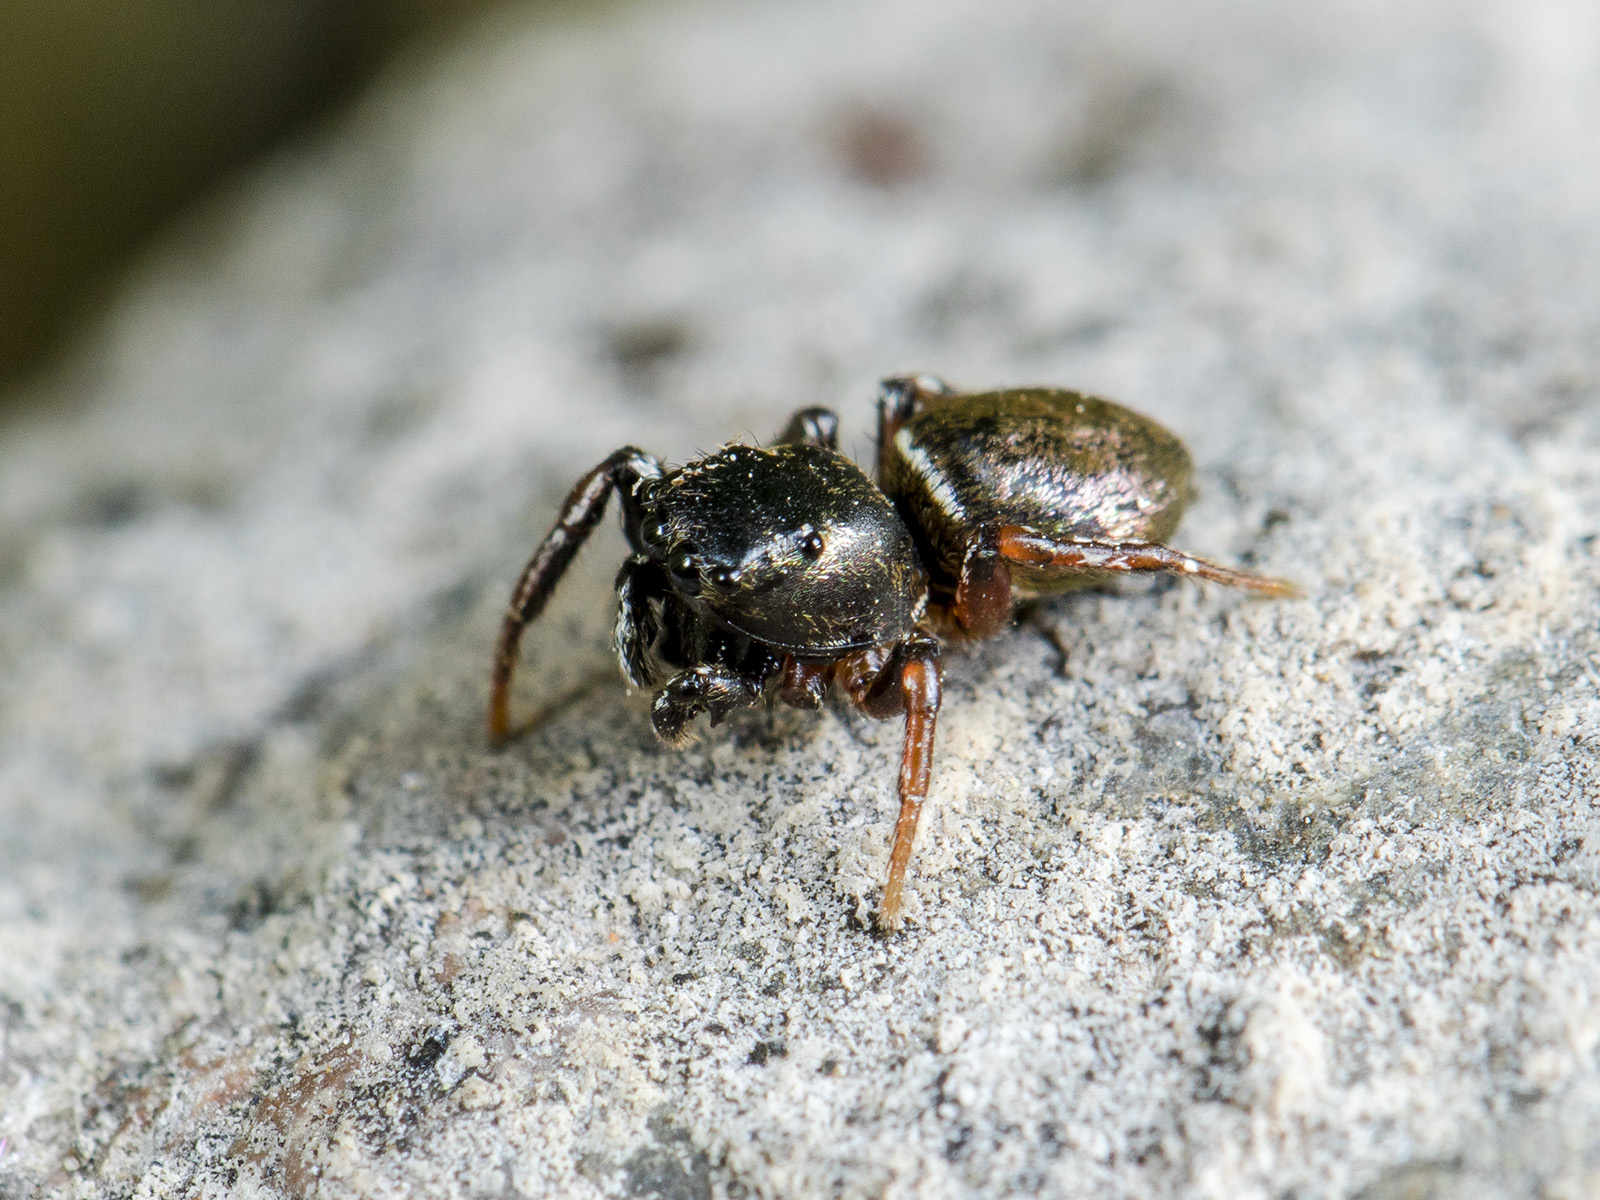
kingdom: Animalia
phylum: Arthropoda
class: Arachnida
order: Araneae
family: Salticidae
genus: Heliophanus
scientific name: Heliophanus auratus
